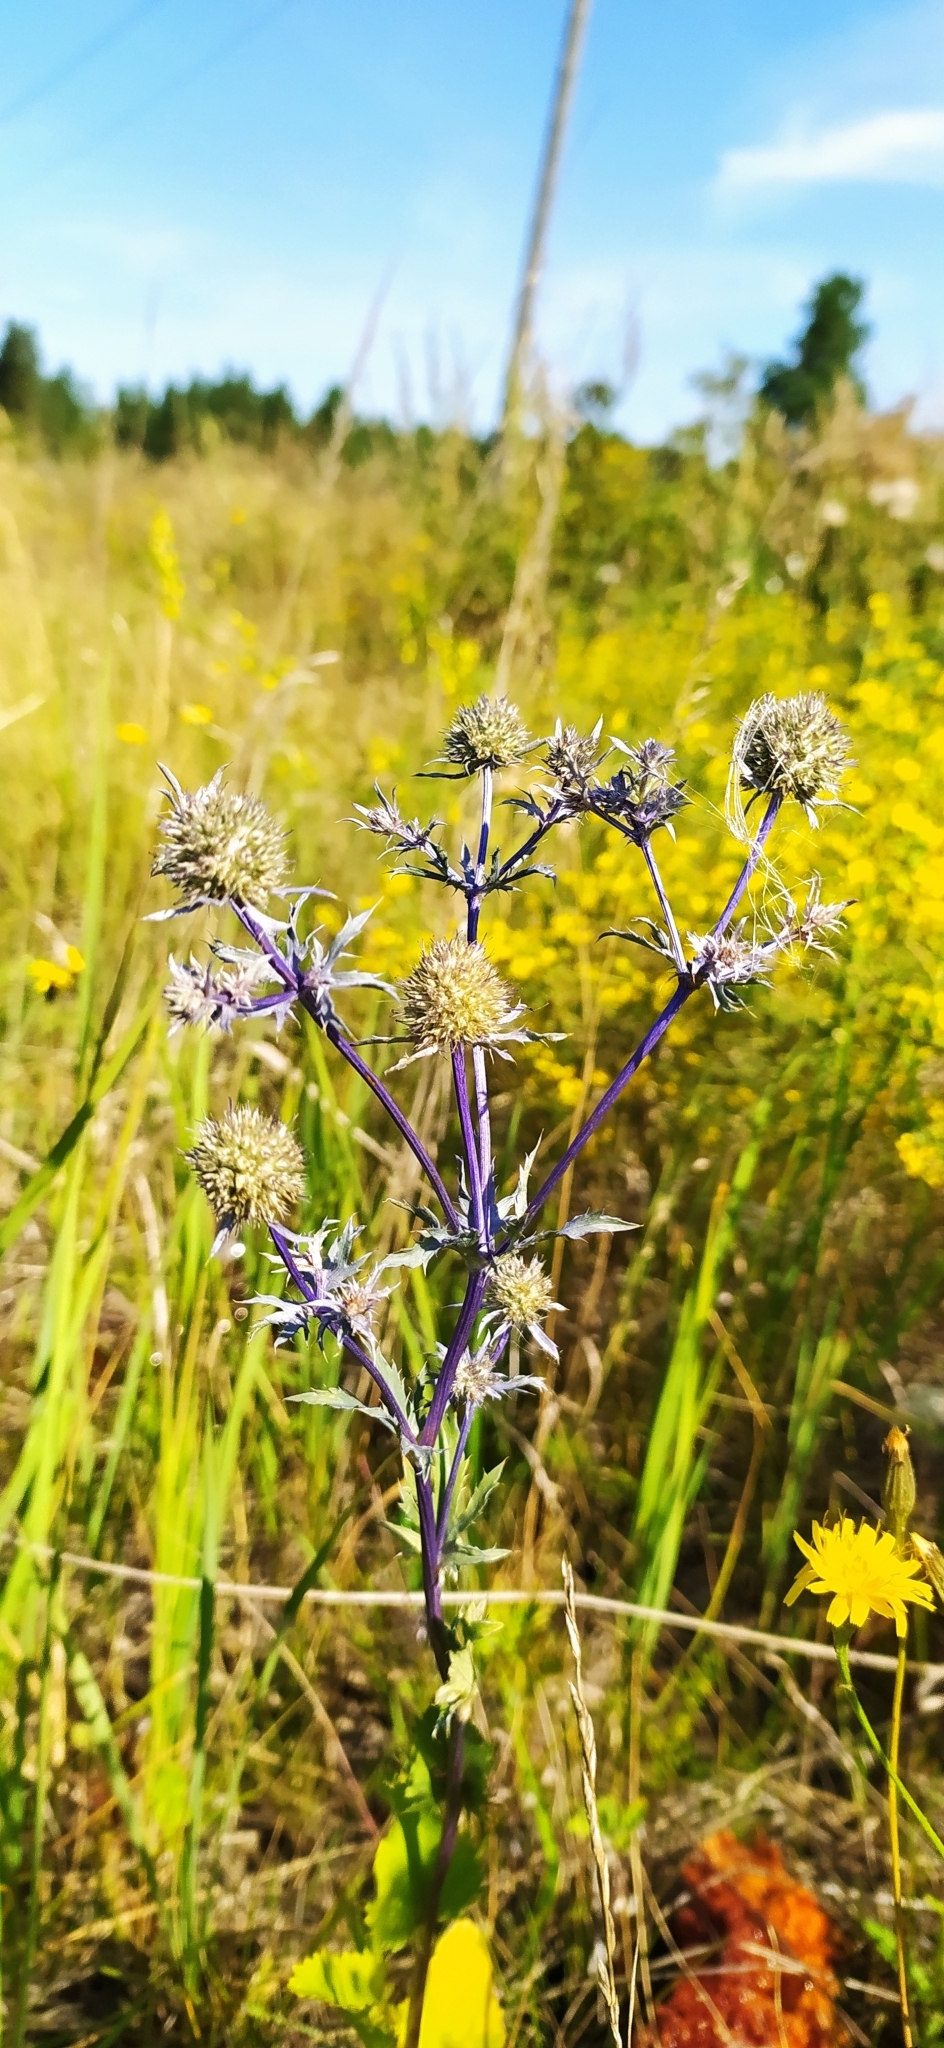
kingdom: Plantae
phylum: Tracheophyta
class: Magnoliopsida
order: Apiales
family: Apiaceae
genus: Eryngium
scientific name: Eryngium planum
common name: Blue eryngo
